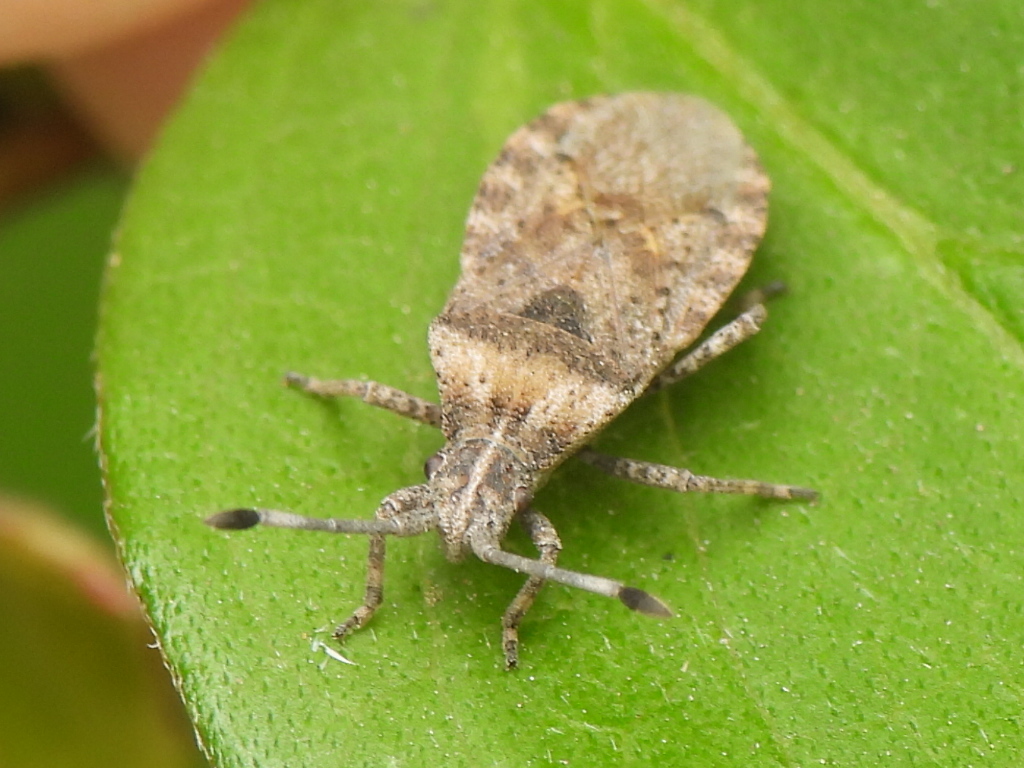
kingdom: Animalia
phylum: Arthropoda
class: Insecta
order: Hemiptera
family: Coreidae
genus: Scolopocerus
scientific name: Scolopocerus uhleri
